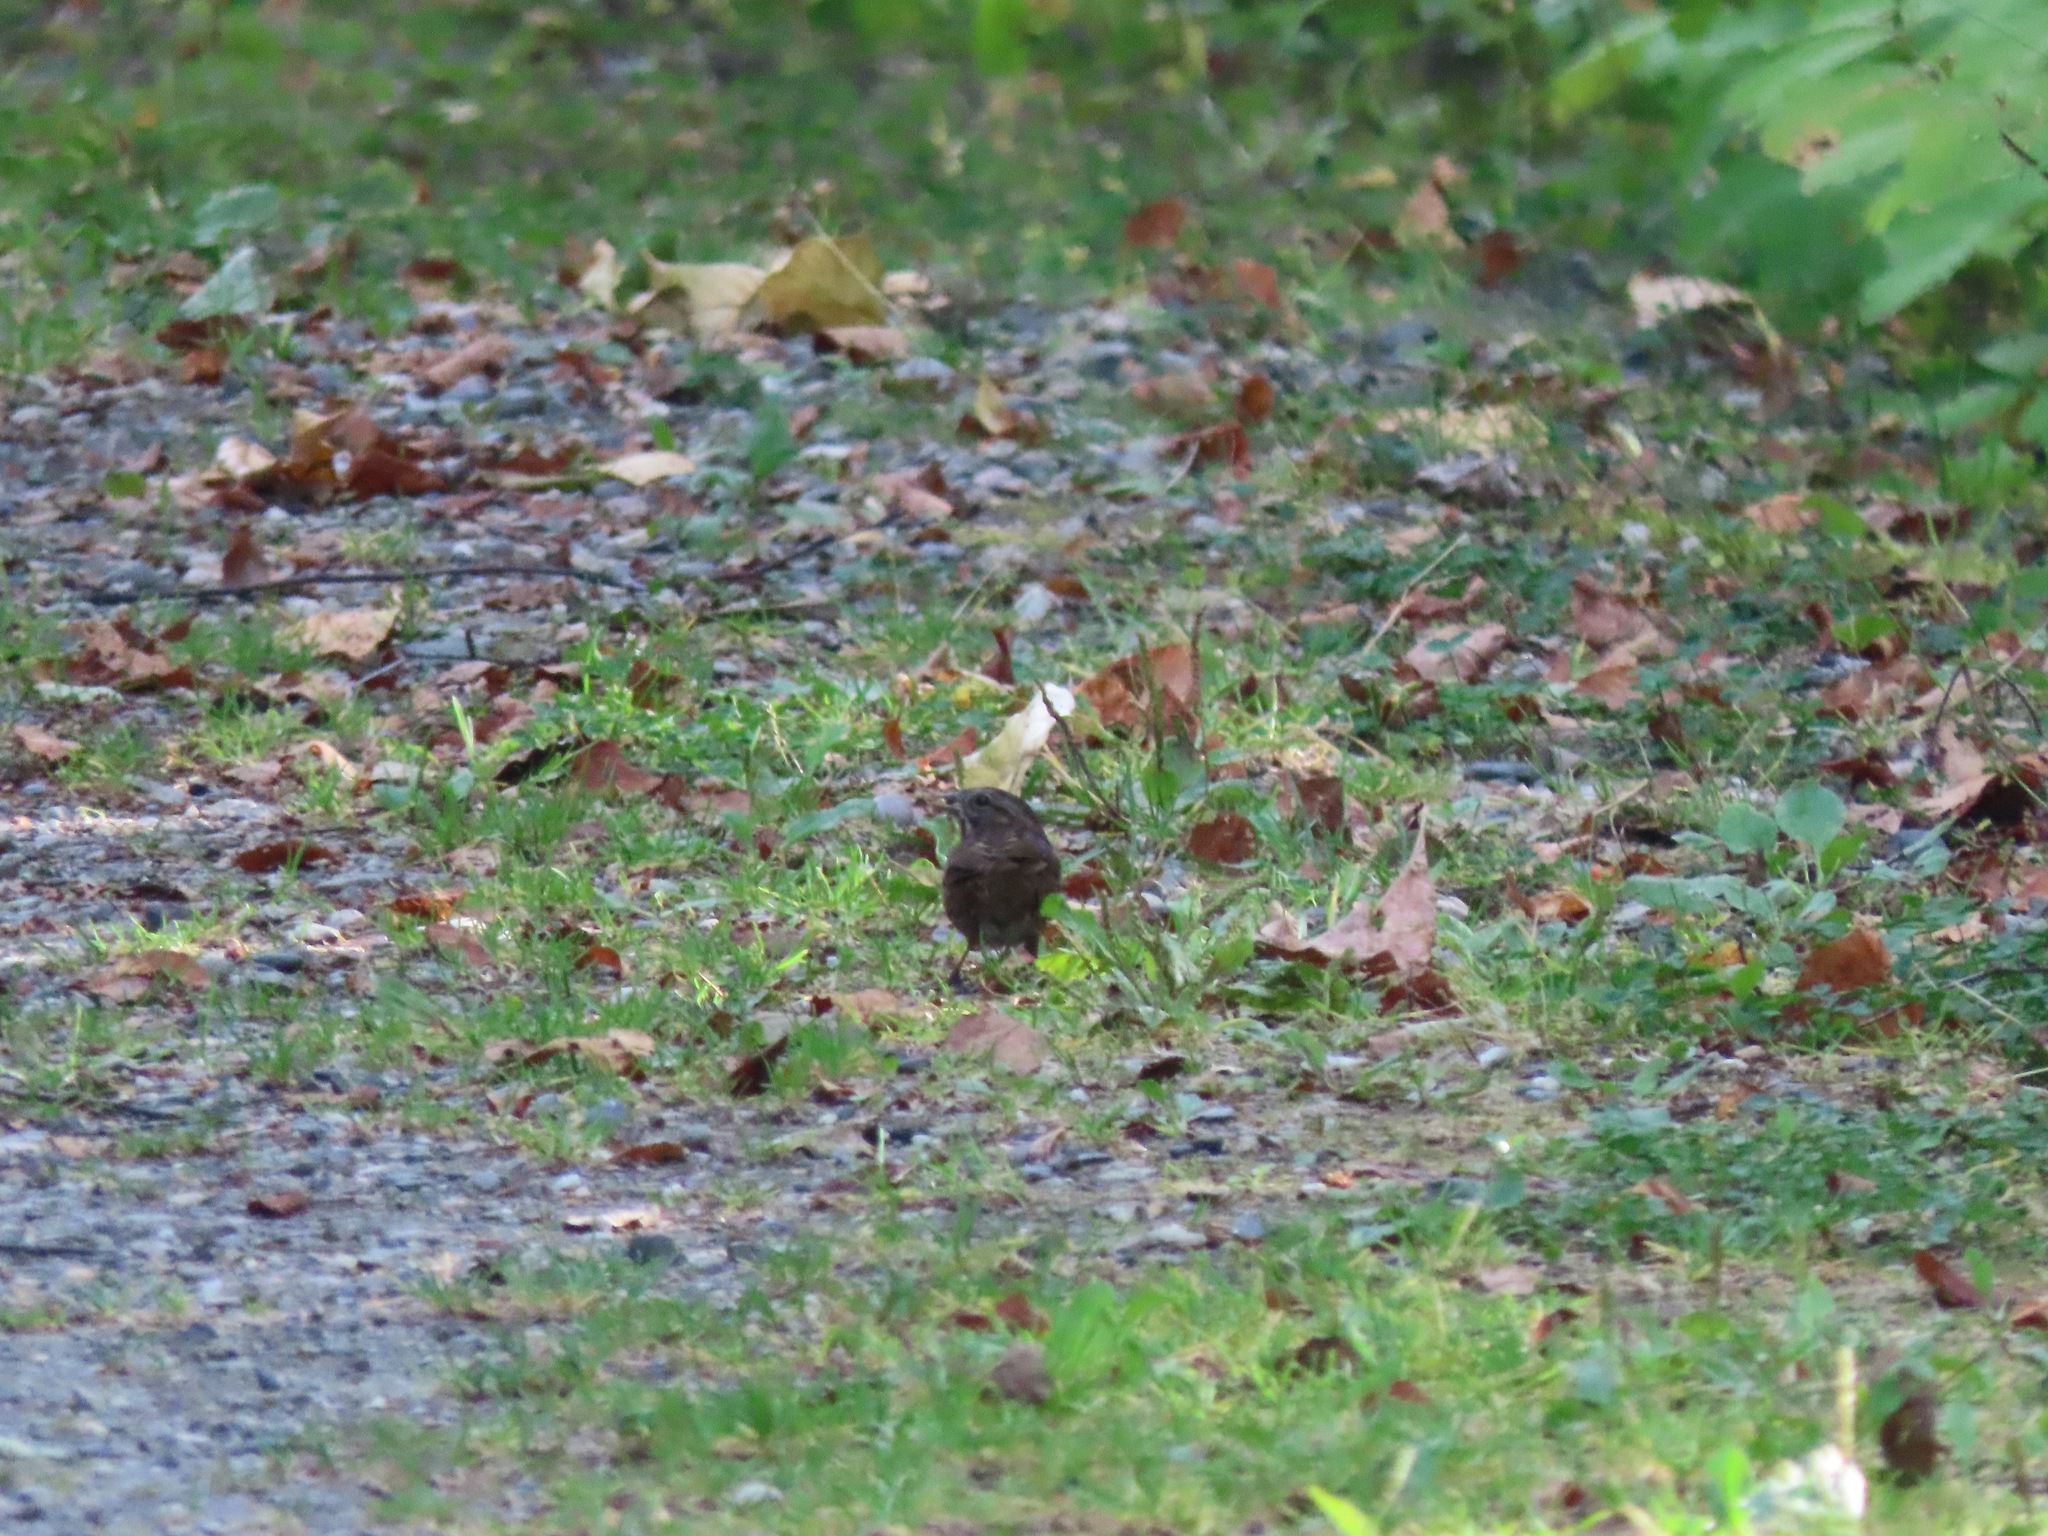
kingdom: Animalia
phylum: Chordata
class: Aves
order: Passeriformes
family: Passerellidae
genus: Melospiza
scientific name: Melospiza melodia
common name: Song sparrow
